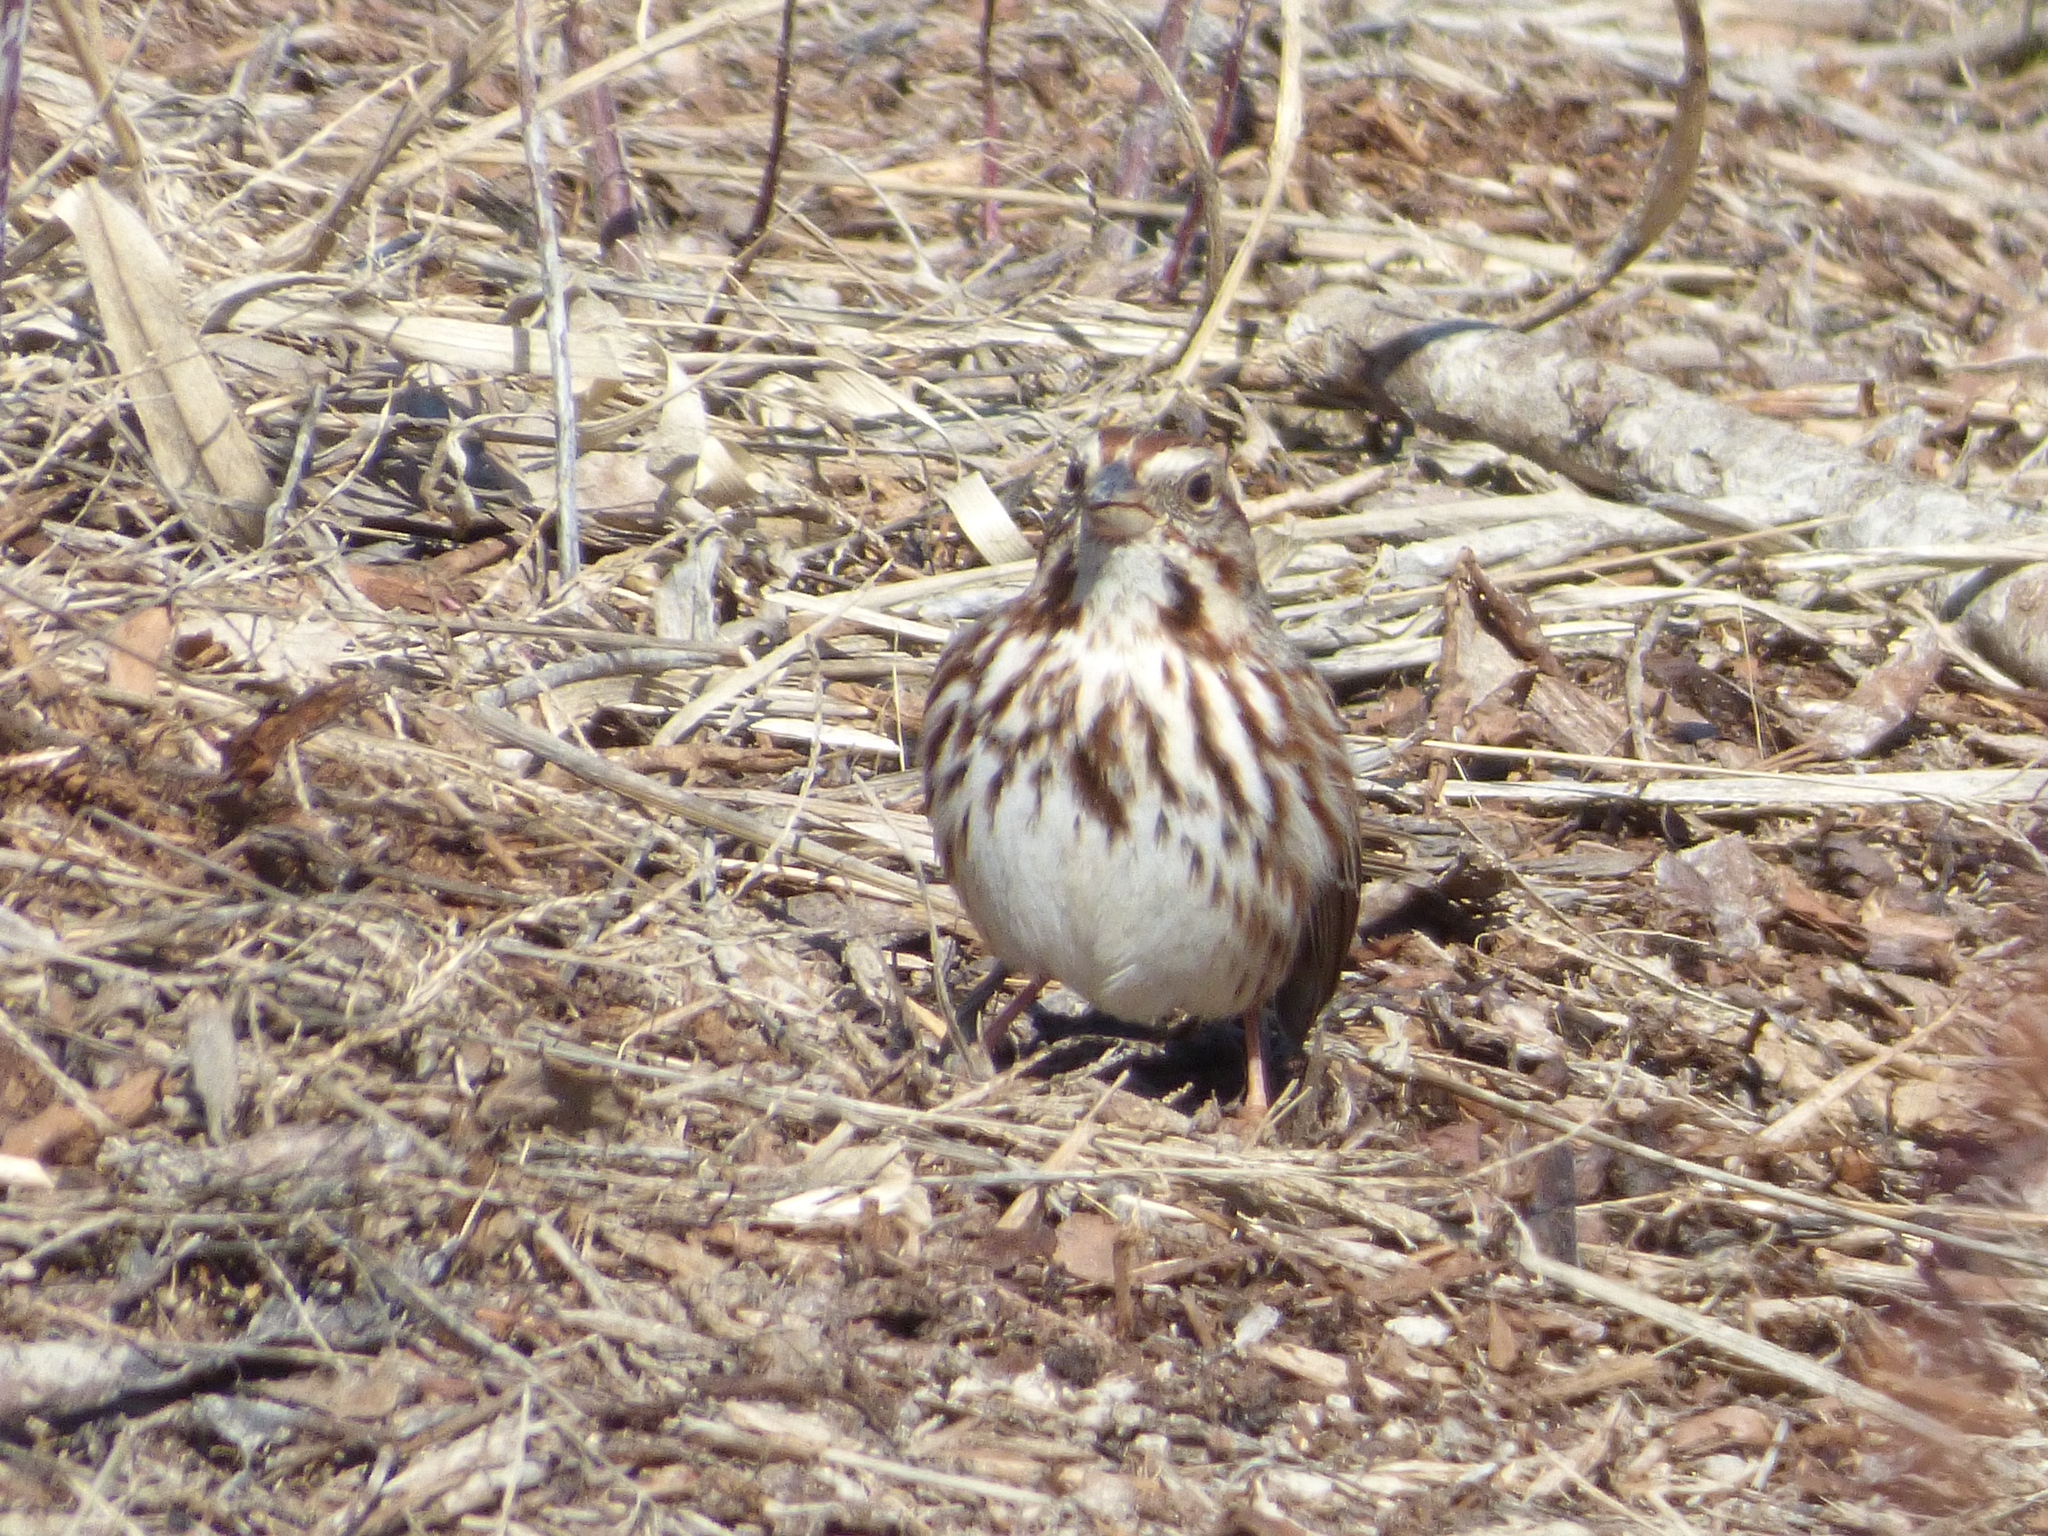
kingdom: Animalia
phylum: Chordata
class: Aves
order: Passeriformes
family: Passerellidae
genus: Melospiza
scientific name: Melospiza melodia
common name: Song sparrow
